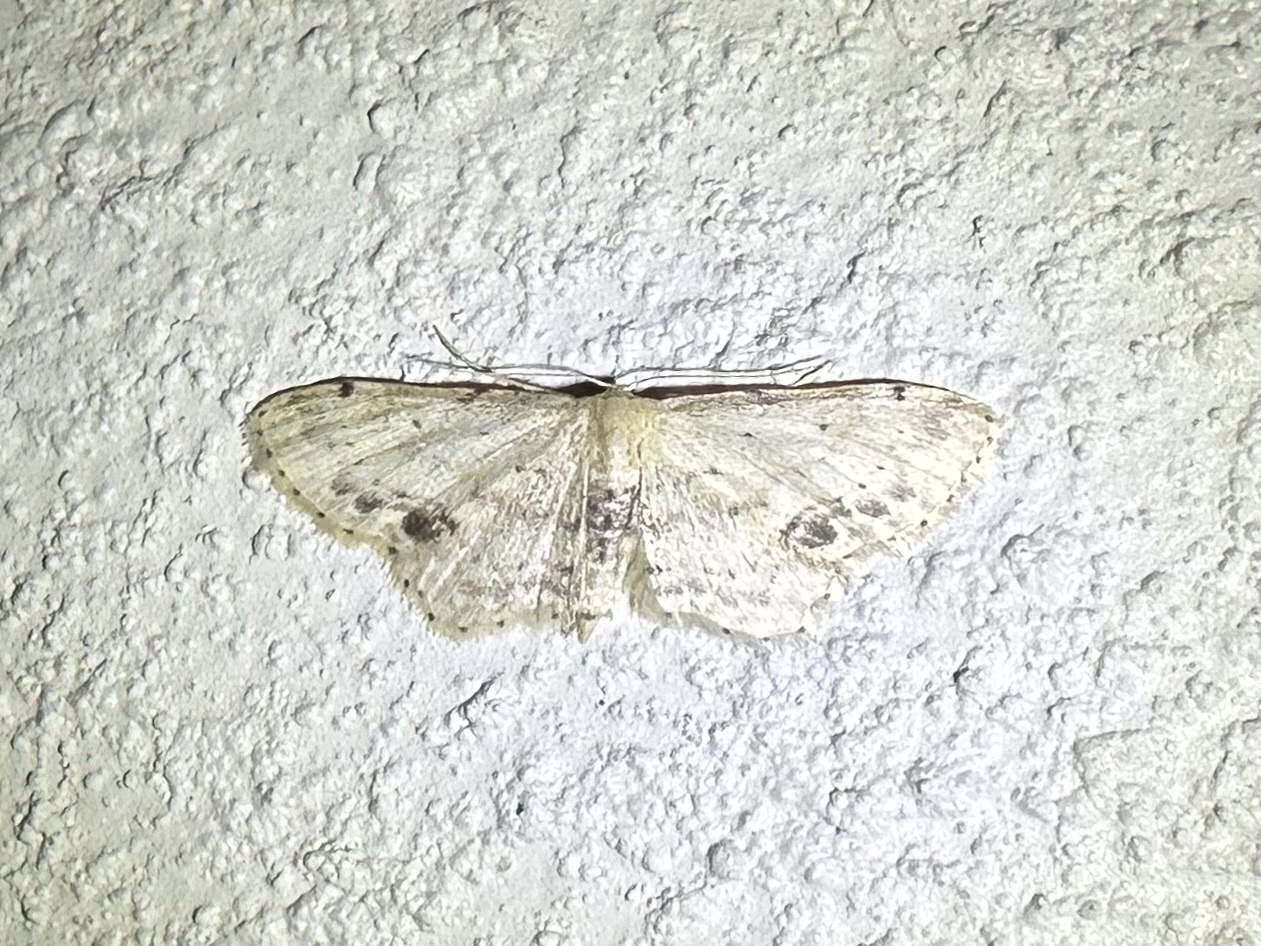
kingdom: Animalia
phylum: Arthropoda
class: Insecta
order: Lepidoptera
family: Geometridae
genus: Idaea
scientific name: Idaea dimidiata
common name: Single-dotted wave
